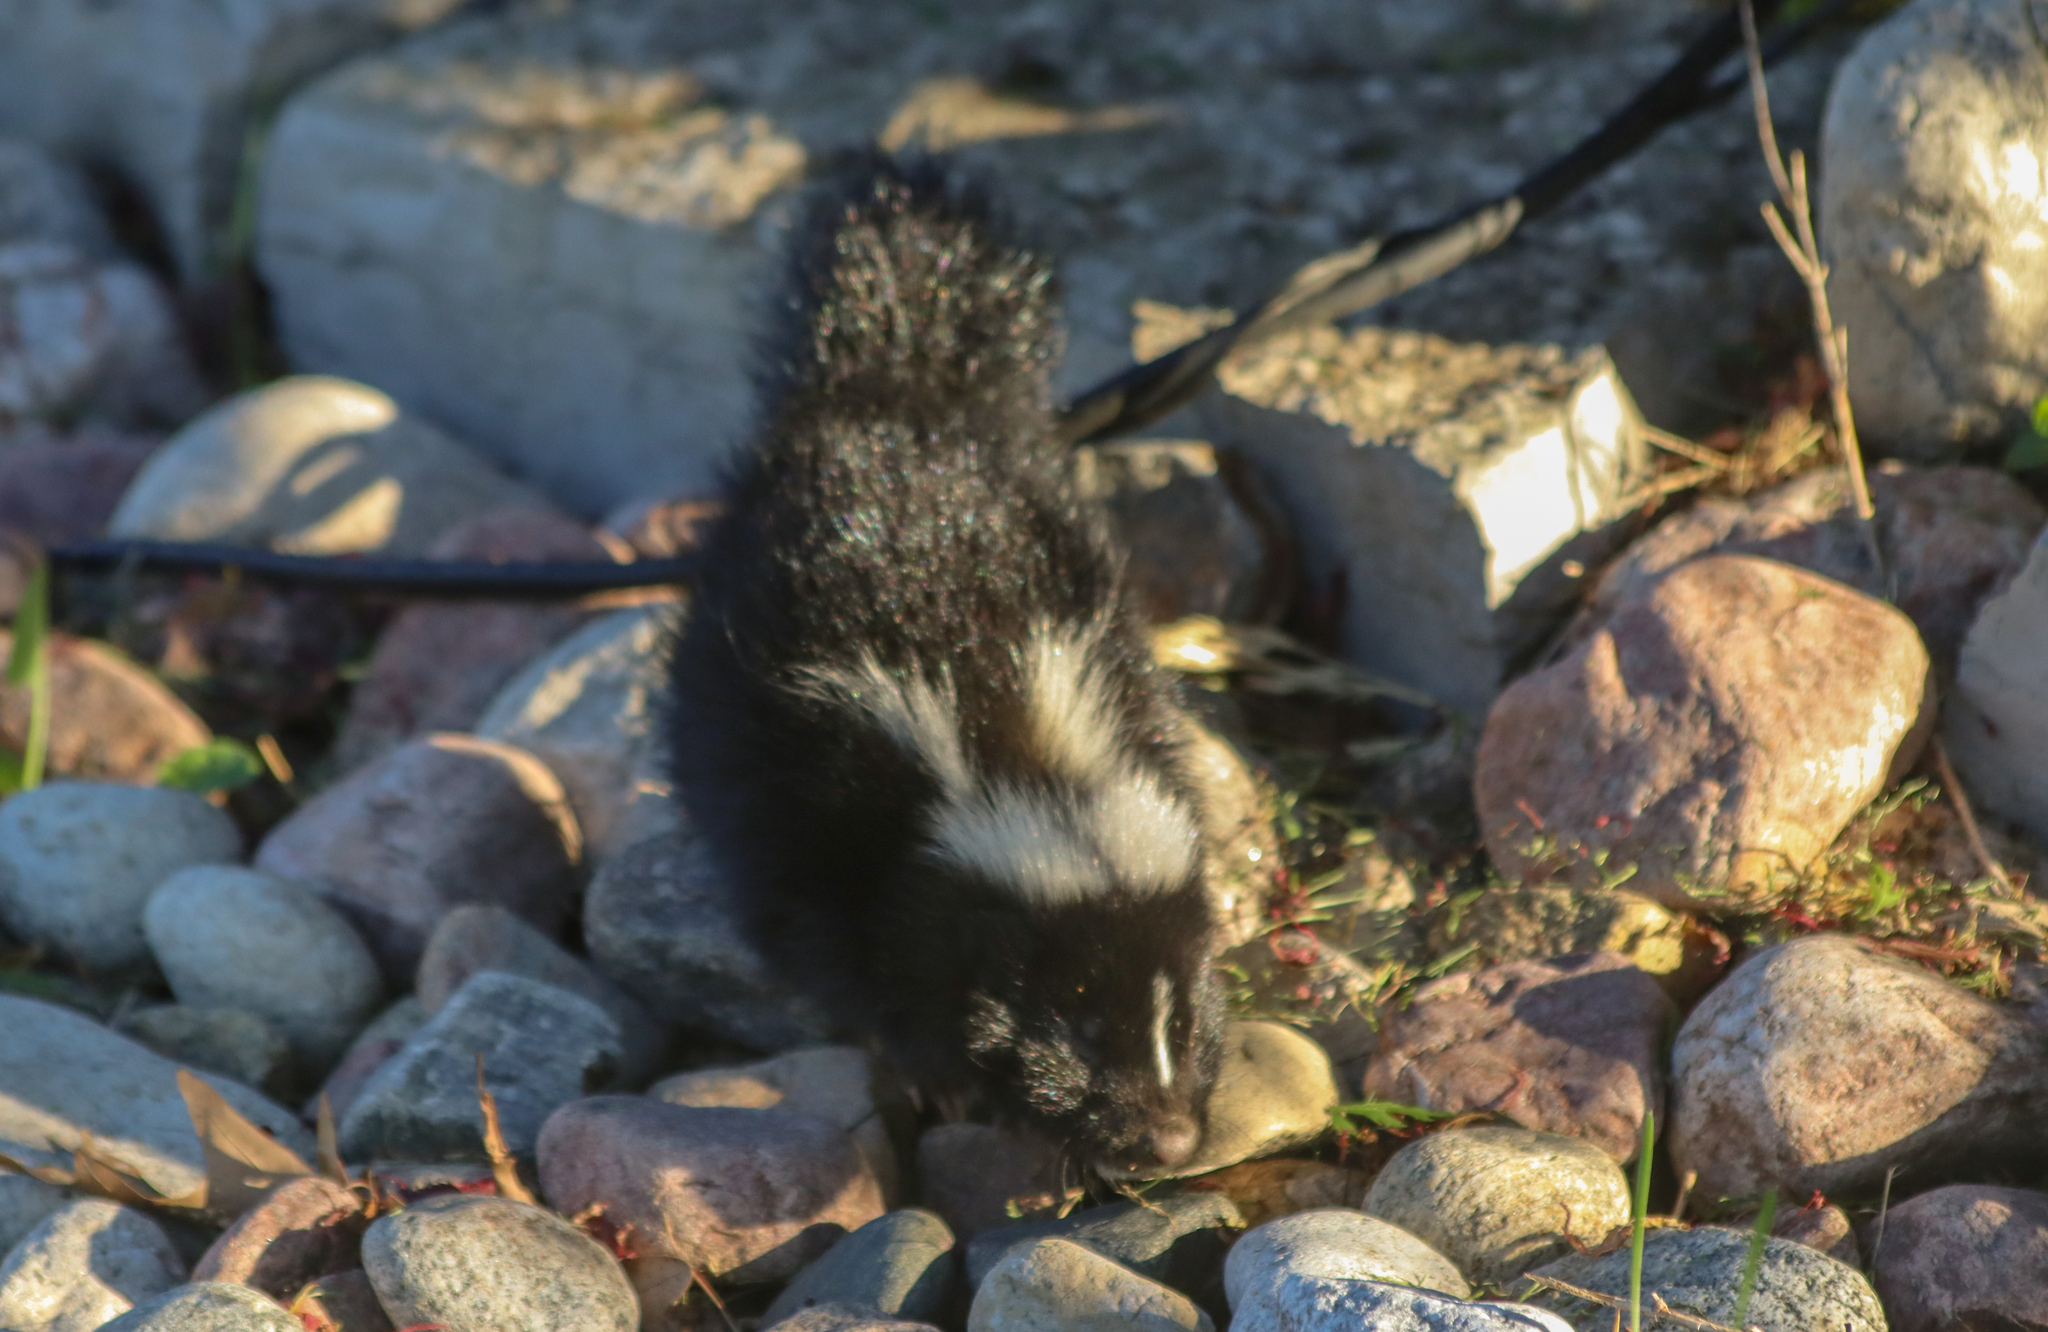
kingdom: Animalia
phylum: Chordata
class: Mammalia
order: Carnivora
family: Mephitidae
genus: Mephitis
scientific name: Mephitis mephitis
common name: Striped skunk
